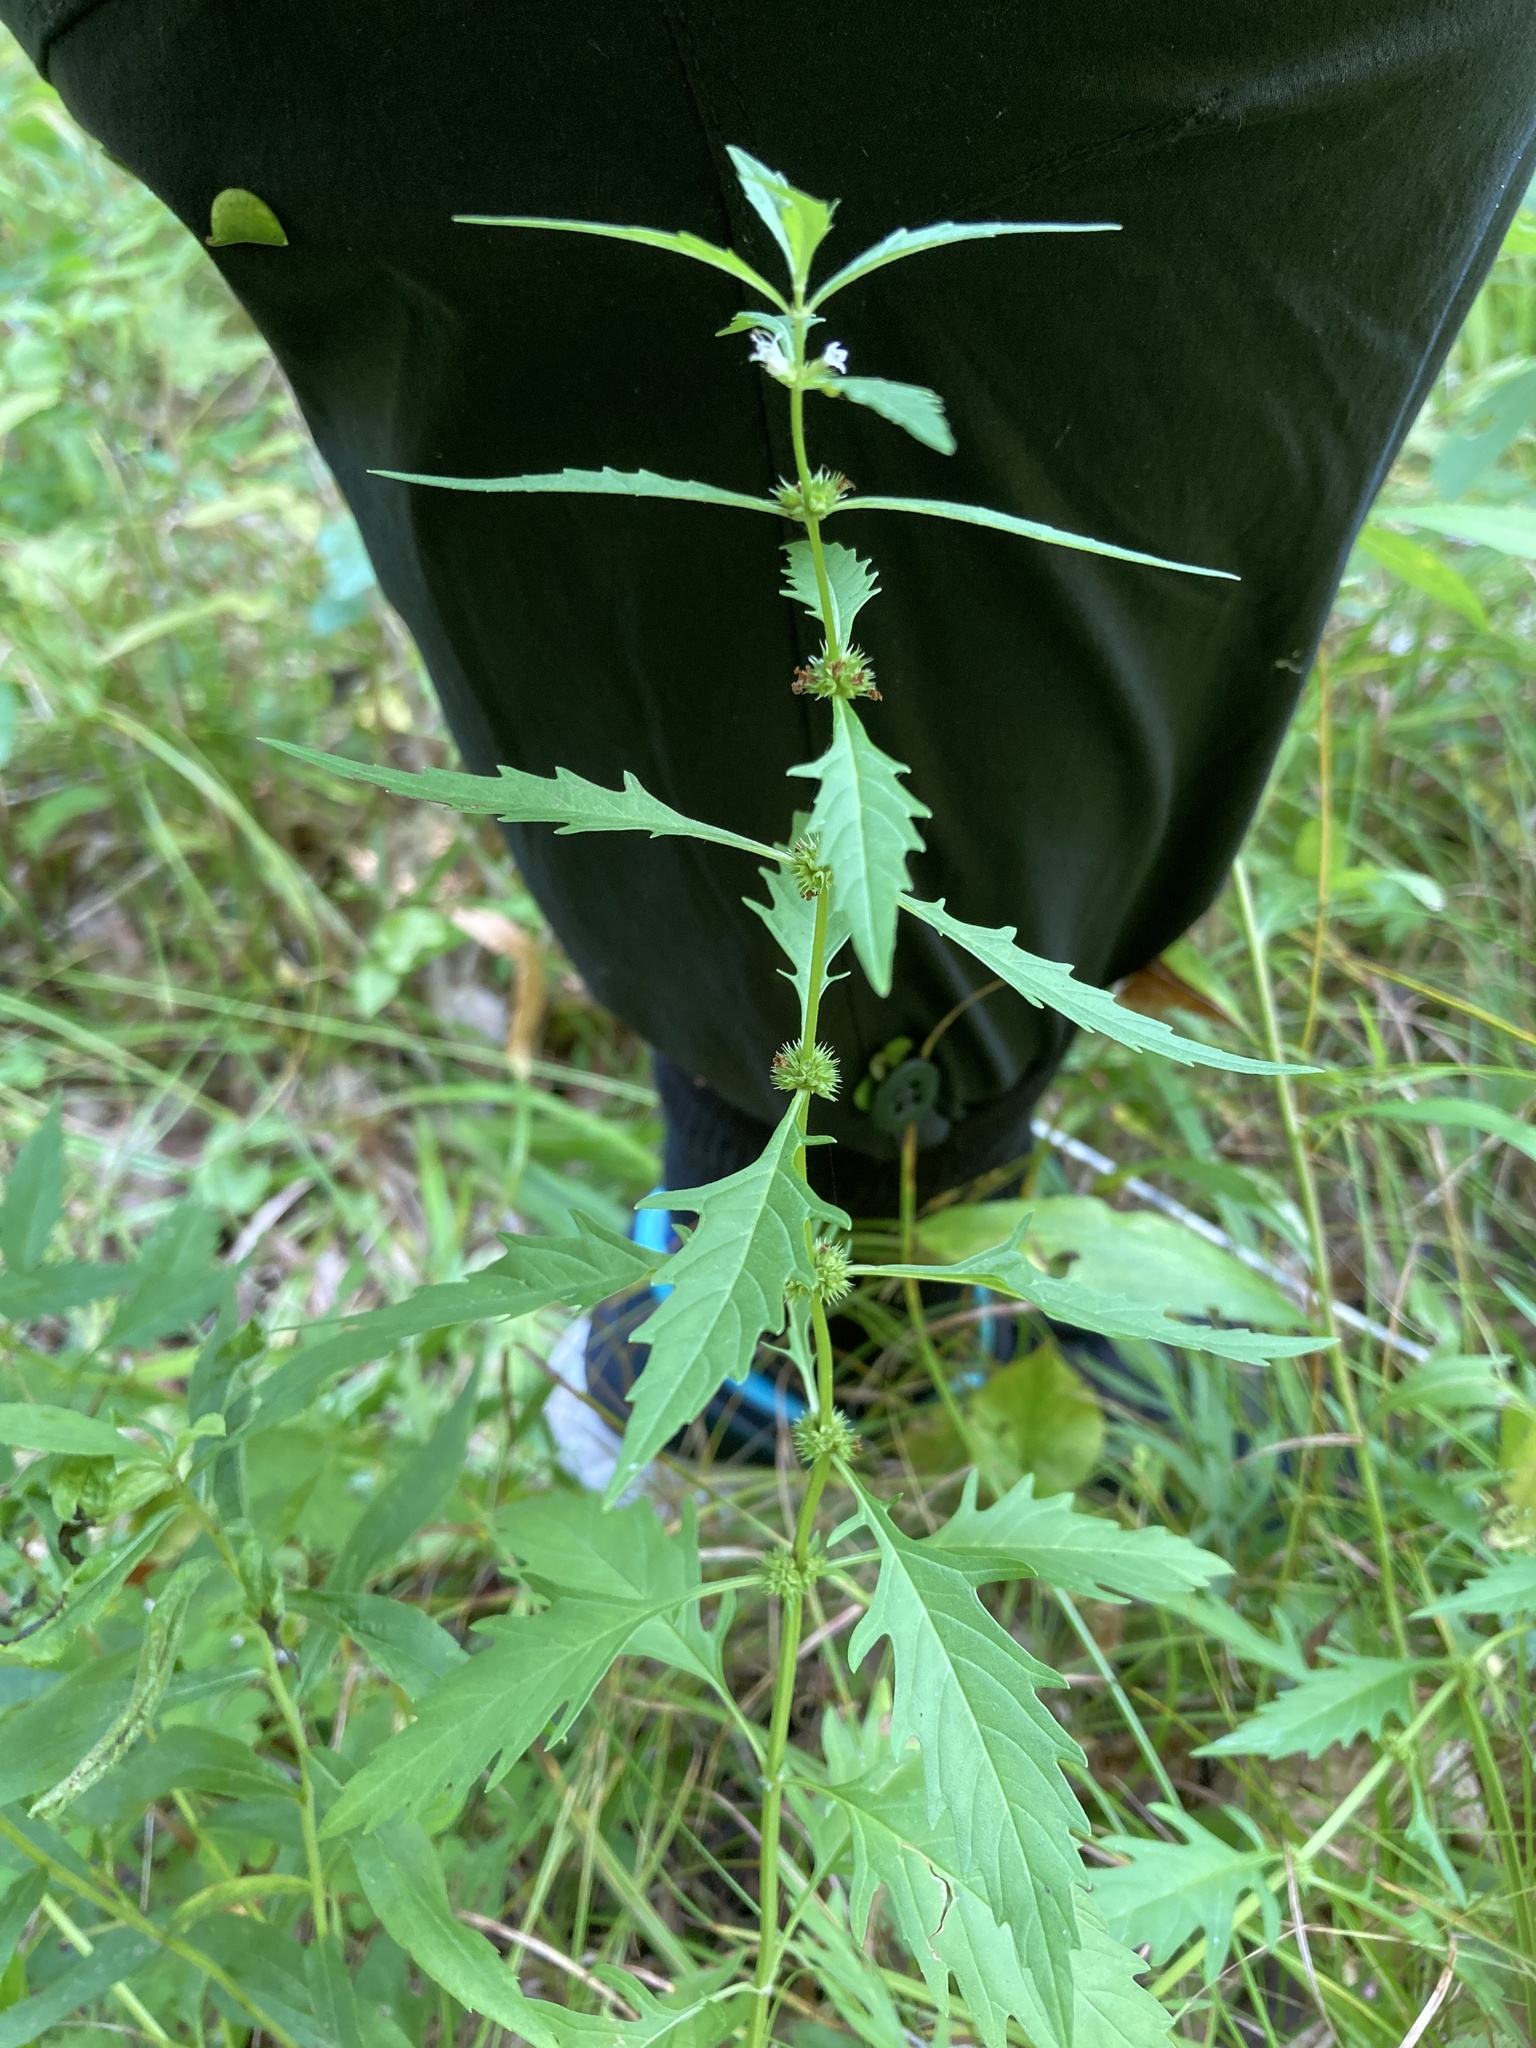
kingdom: Plantae
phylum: Tracheophyta
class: Magnoliopsida
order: Lamiales
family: Lamiaceae
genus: Lycopus
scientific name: Lycopus americanus
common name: American bugleweed
